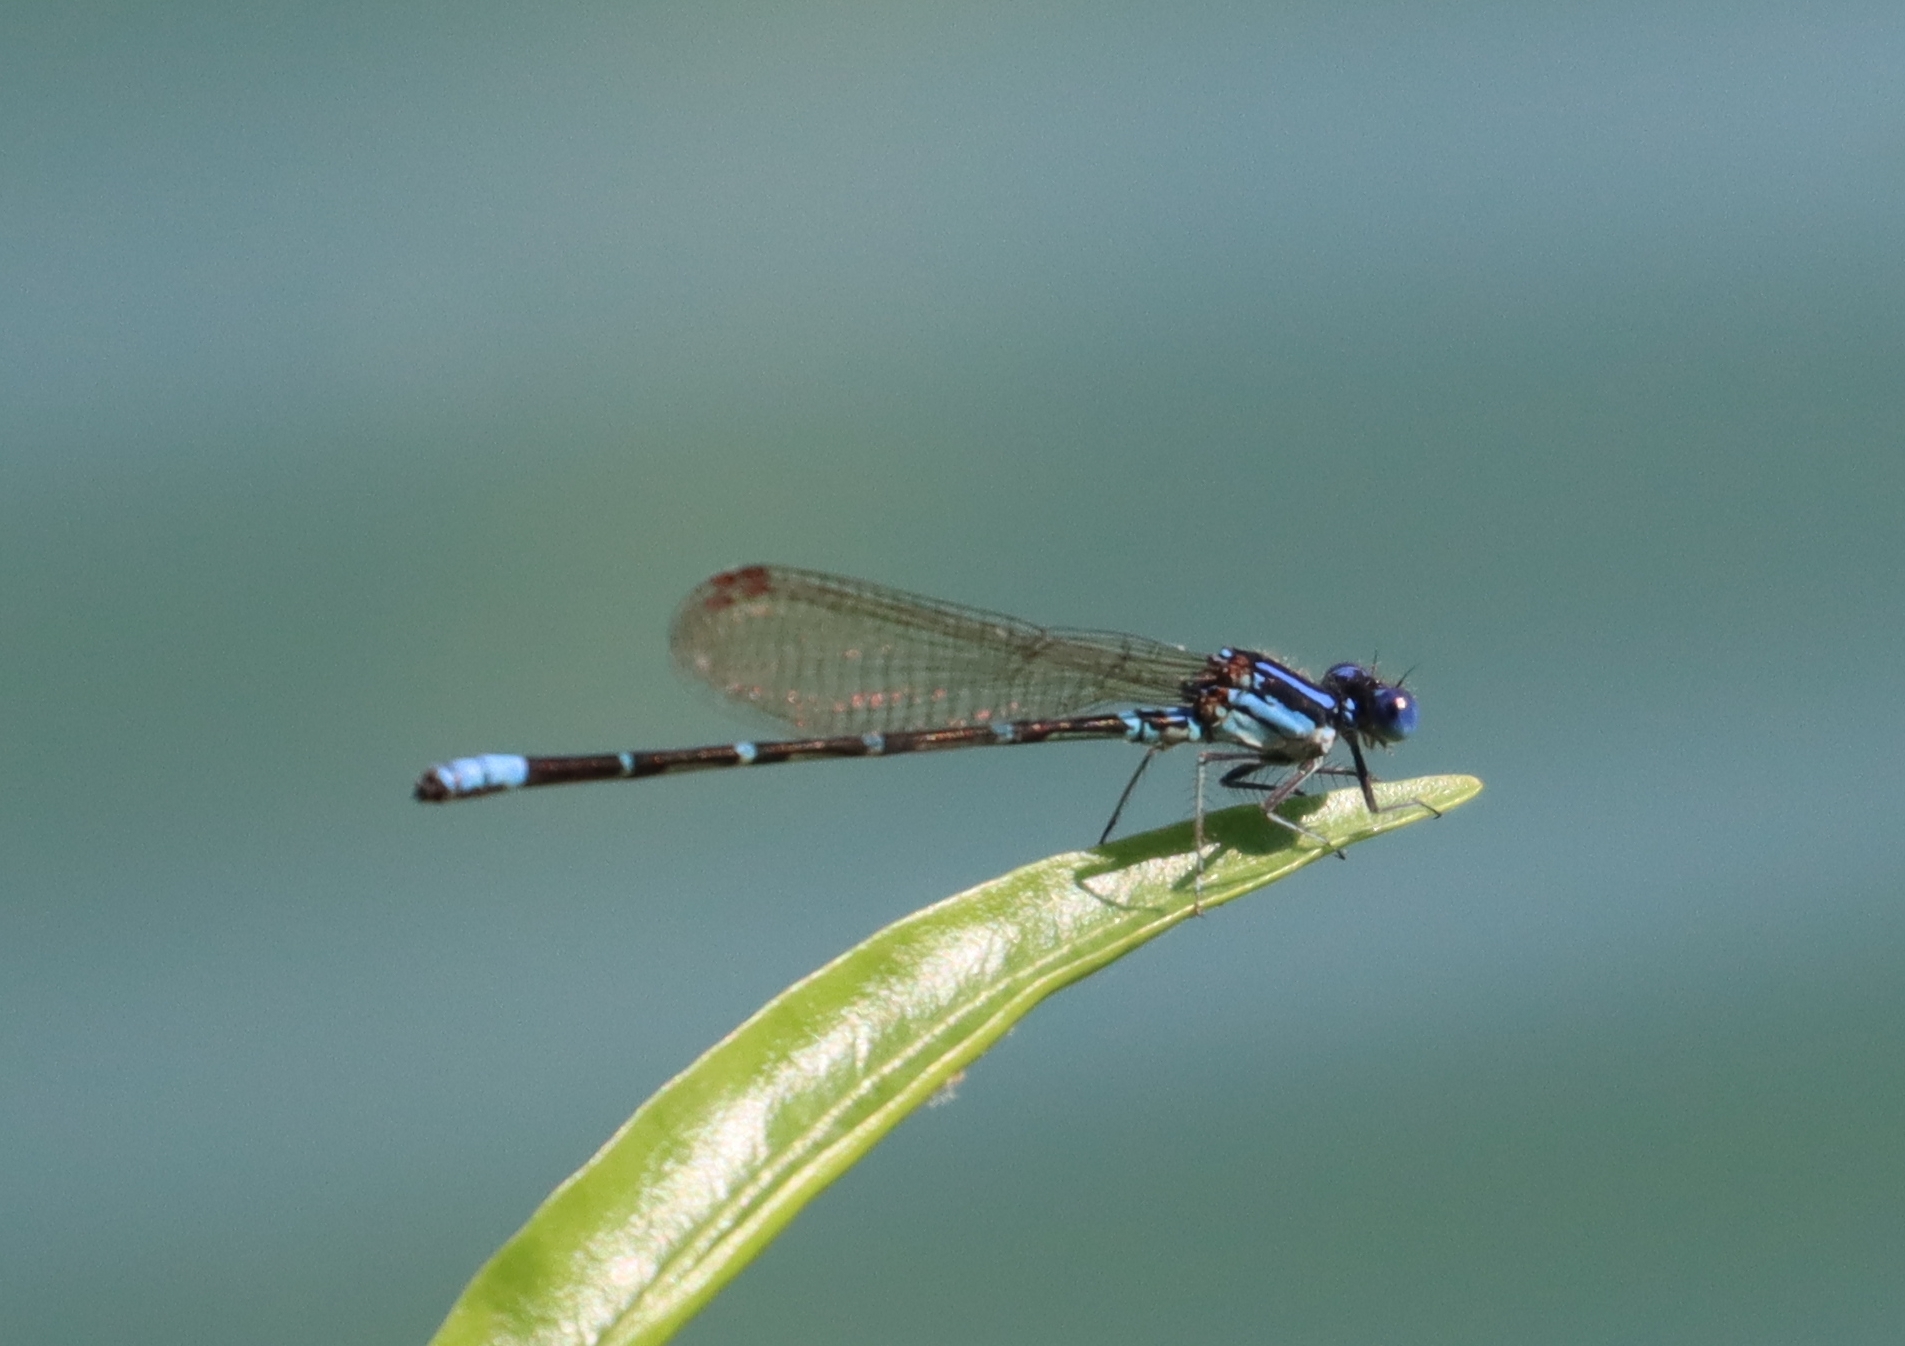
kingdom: Animalia
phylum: Arthropoda
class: Insecta
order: Odonata
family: Coenagrionidae
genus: Argia
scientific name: Argia sedula
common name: Blue-ringed dancer
